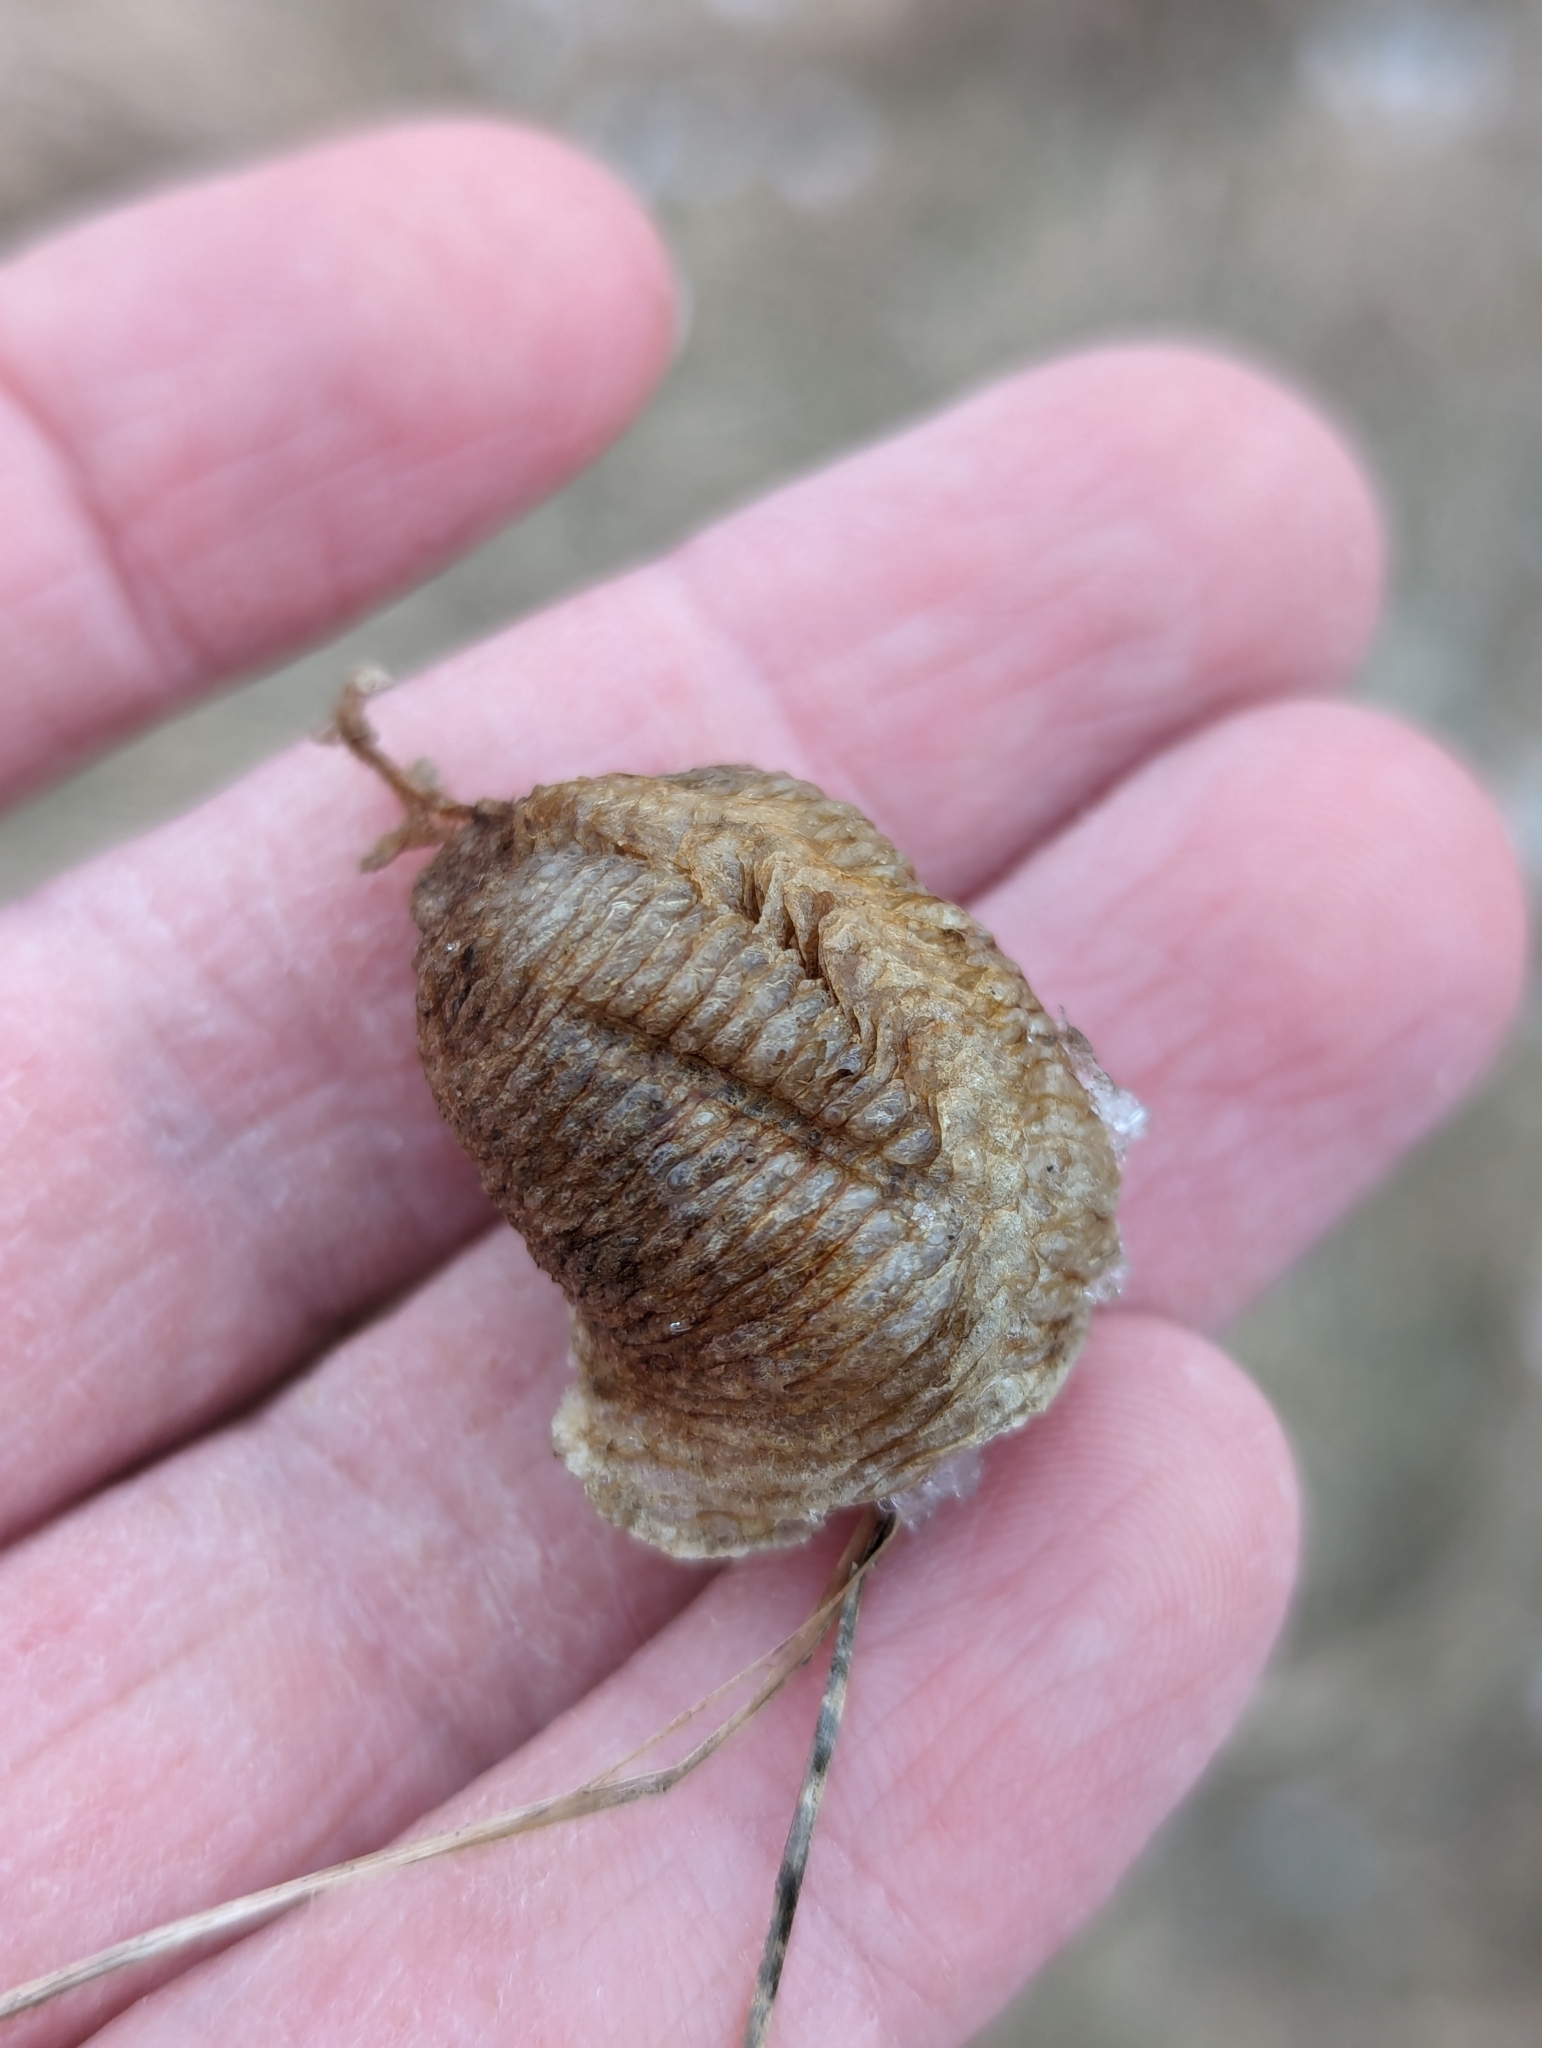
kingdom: Animalia
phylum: Arthropoda
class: Insecta
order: Mantodea
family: Mantidae
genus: Mantis
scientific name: Mantis religiosa
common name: Praying mantis
